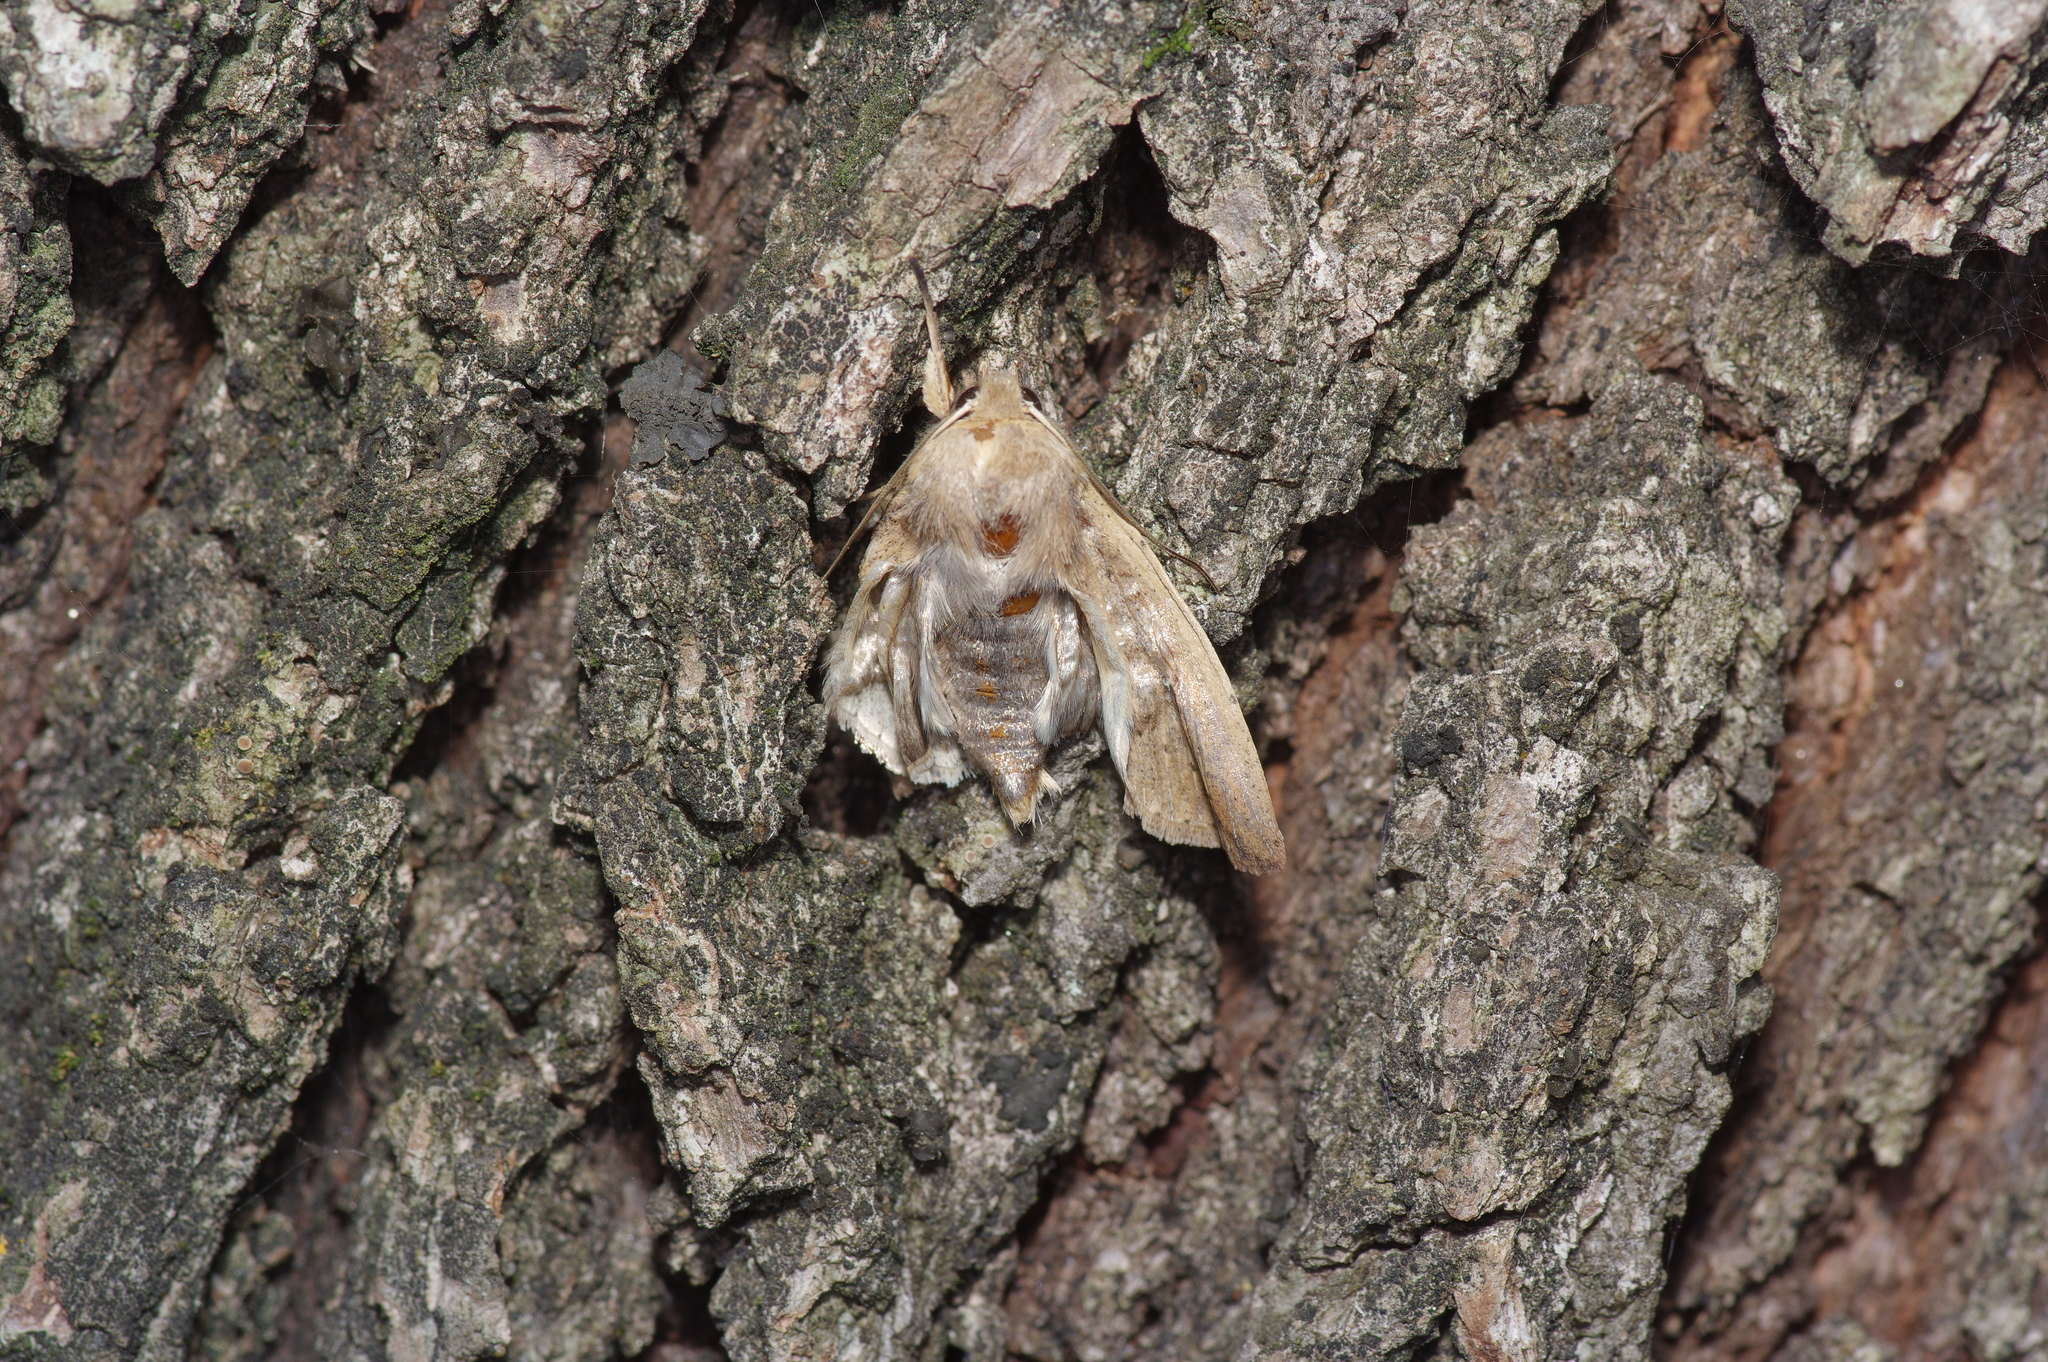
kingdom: Animalia
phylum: Arthropoda
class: Insecta
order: Lepidoptera
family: Noctuidae
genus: Mythimna
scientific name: Mythimna unipuncta
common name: White-speck
